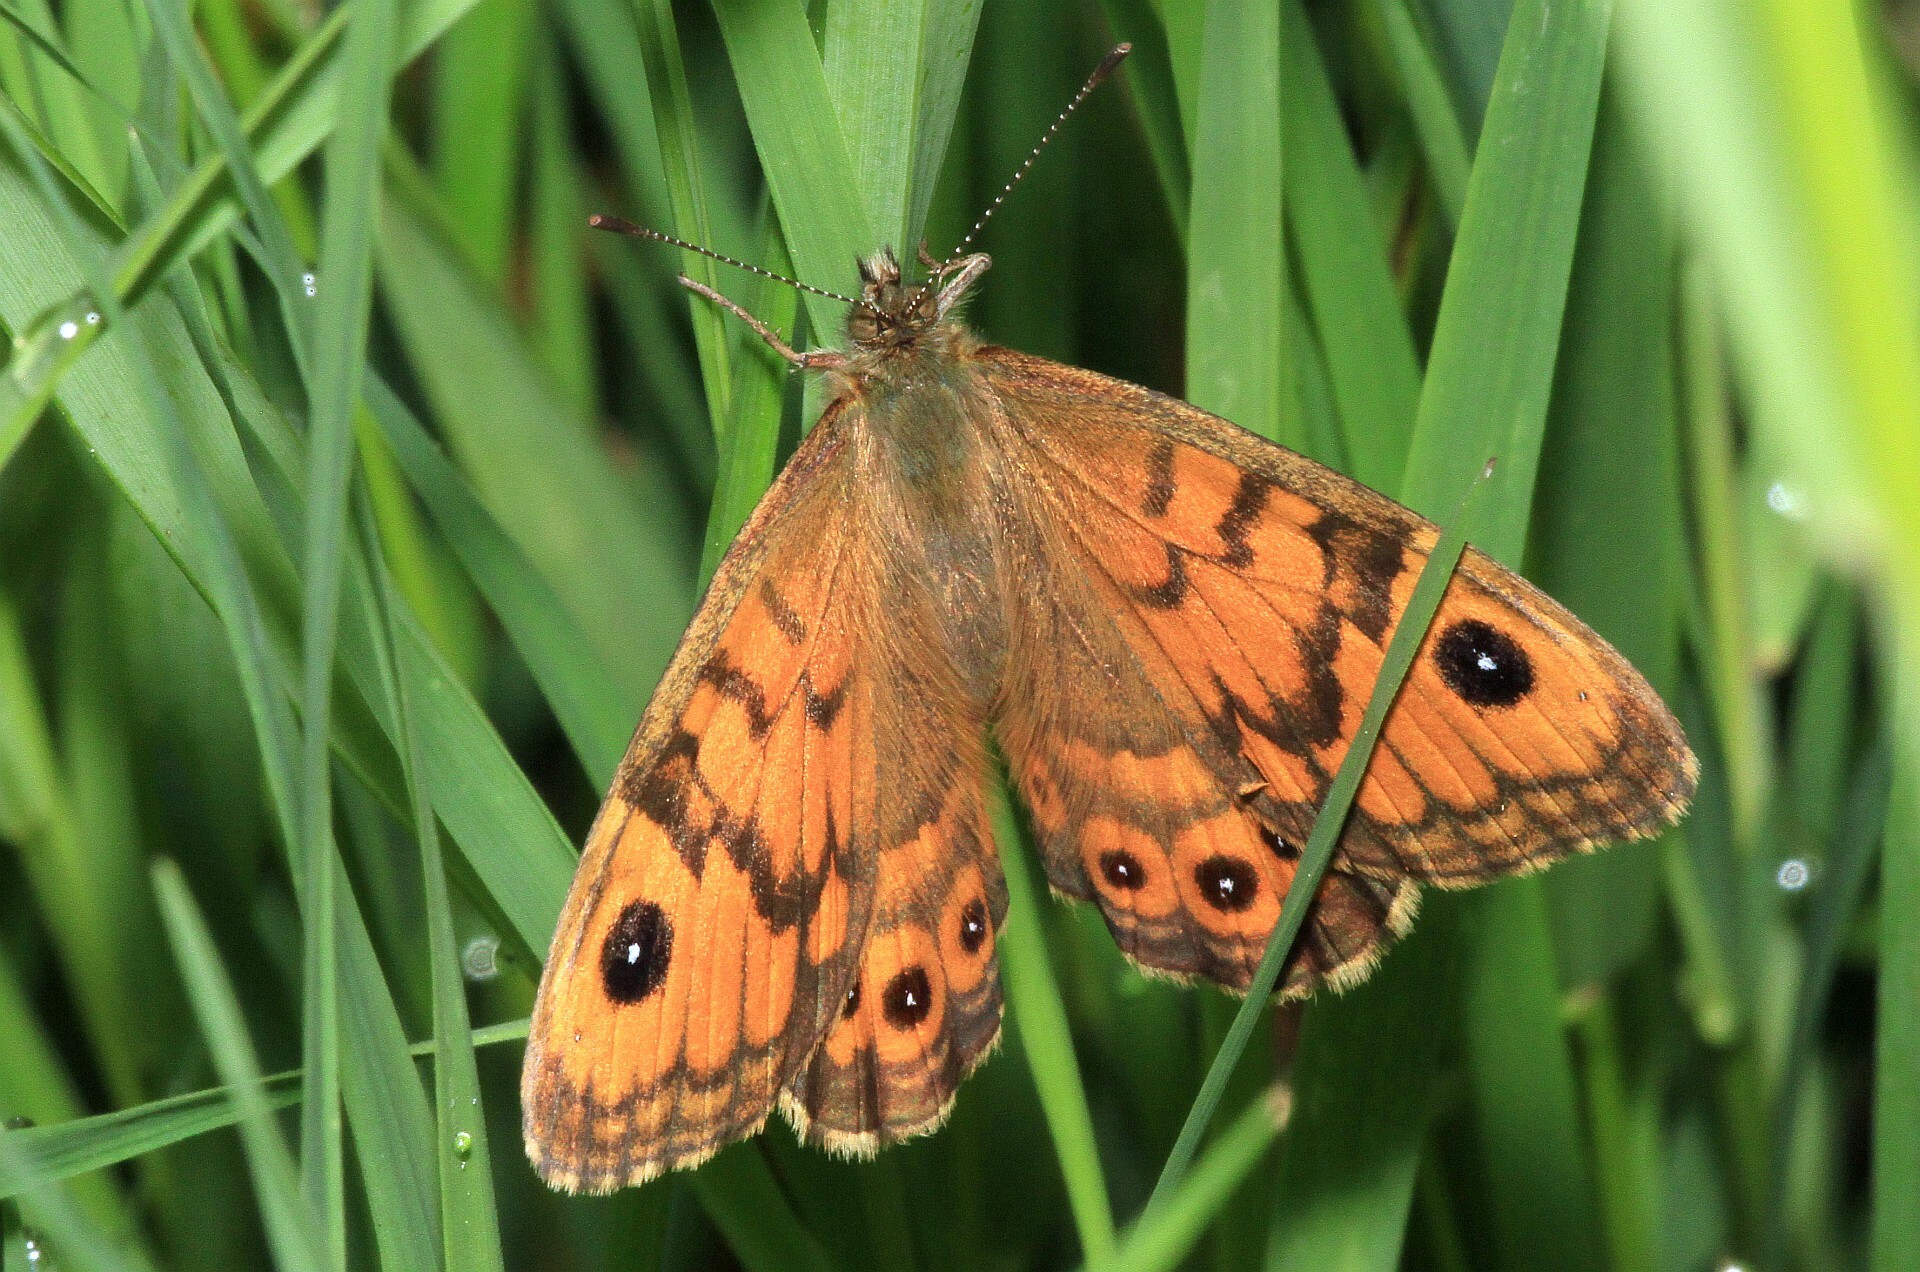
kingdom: Animalia
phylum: Arthropoda
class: Insecta
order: Lepidoptera
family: Nymphalidae
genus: Pararge
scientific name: Pararge Lasiommata megera
